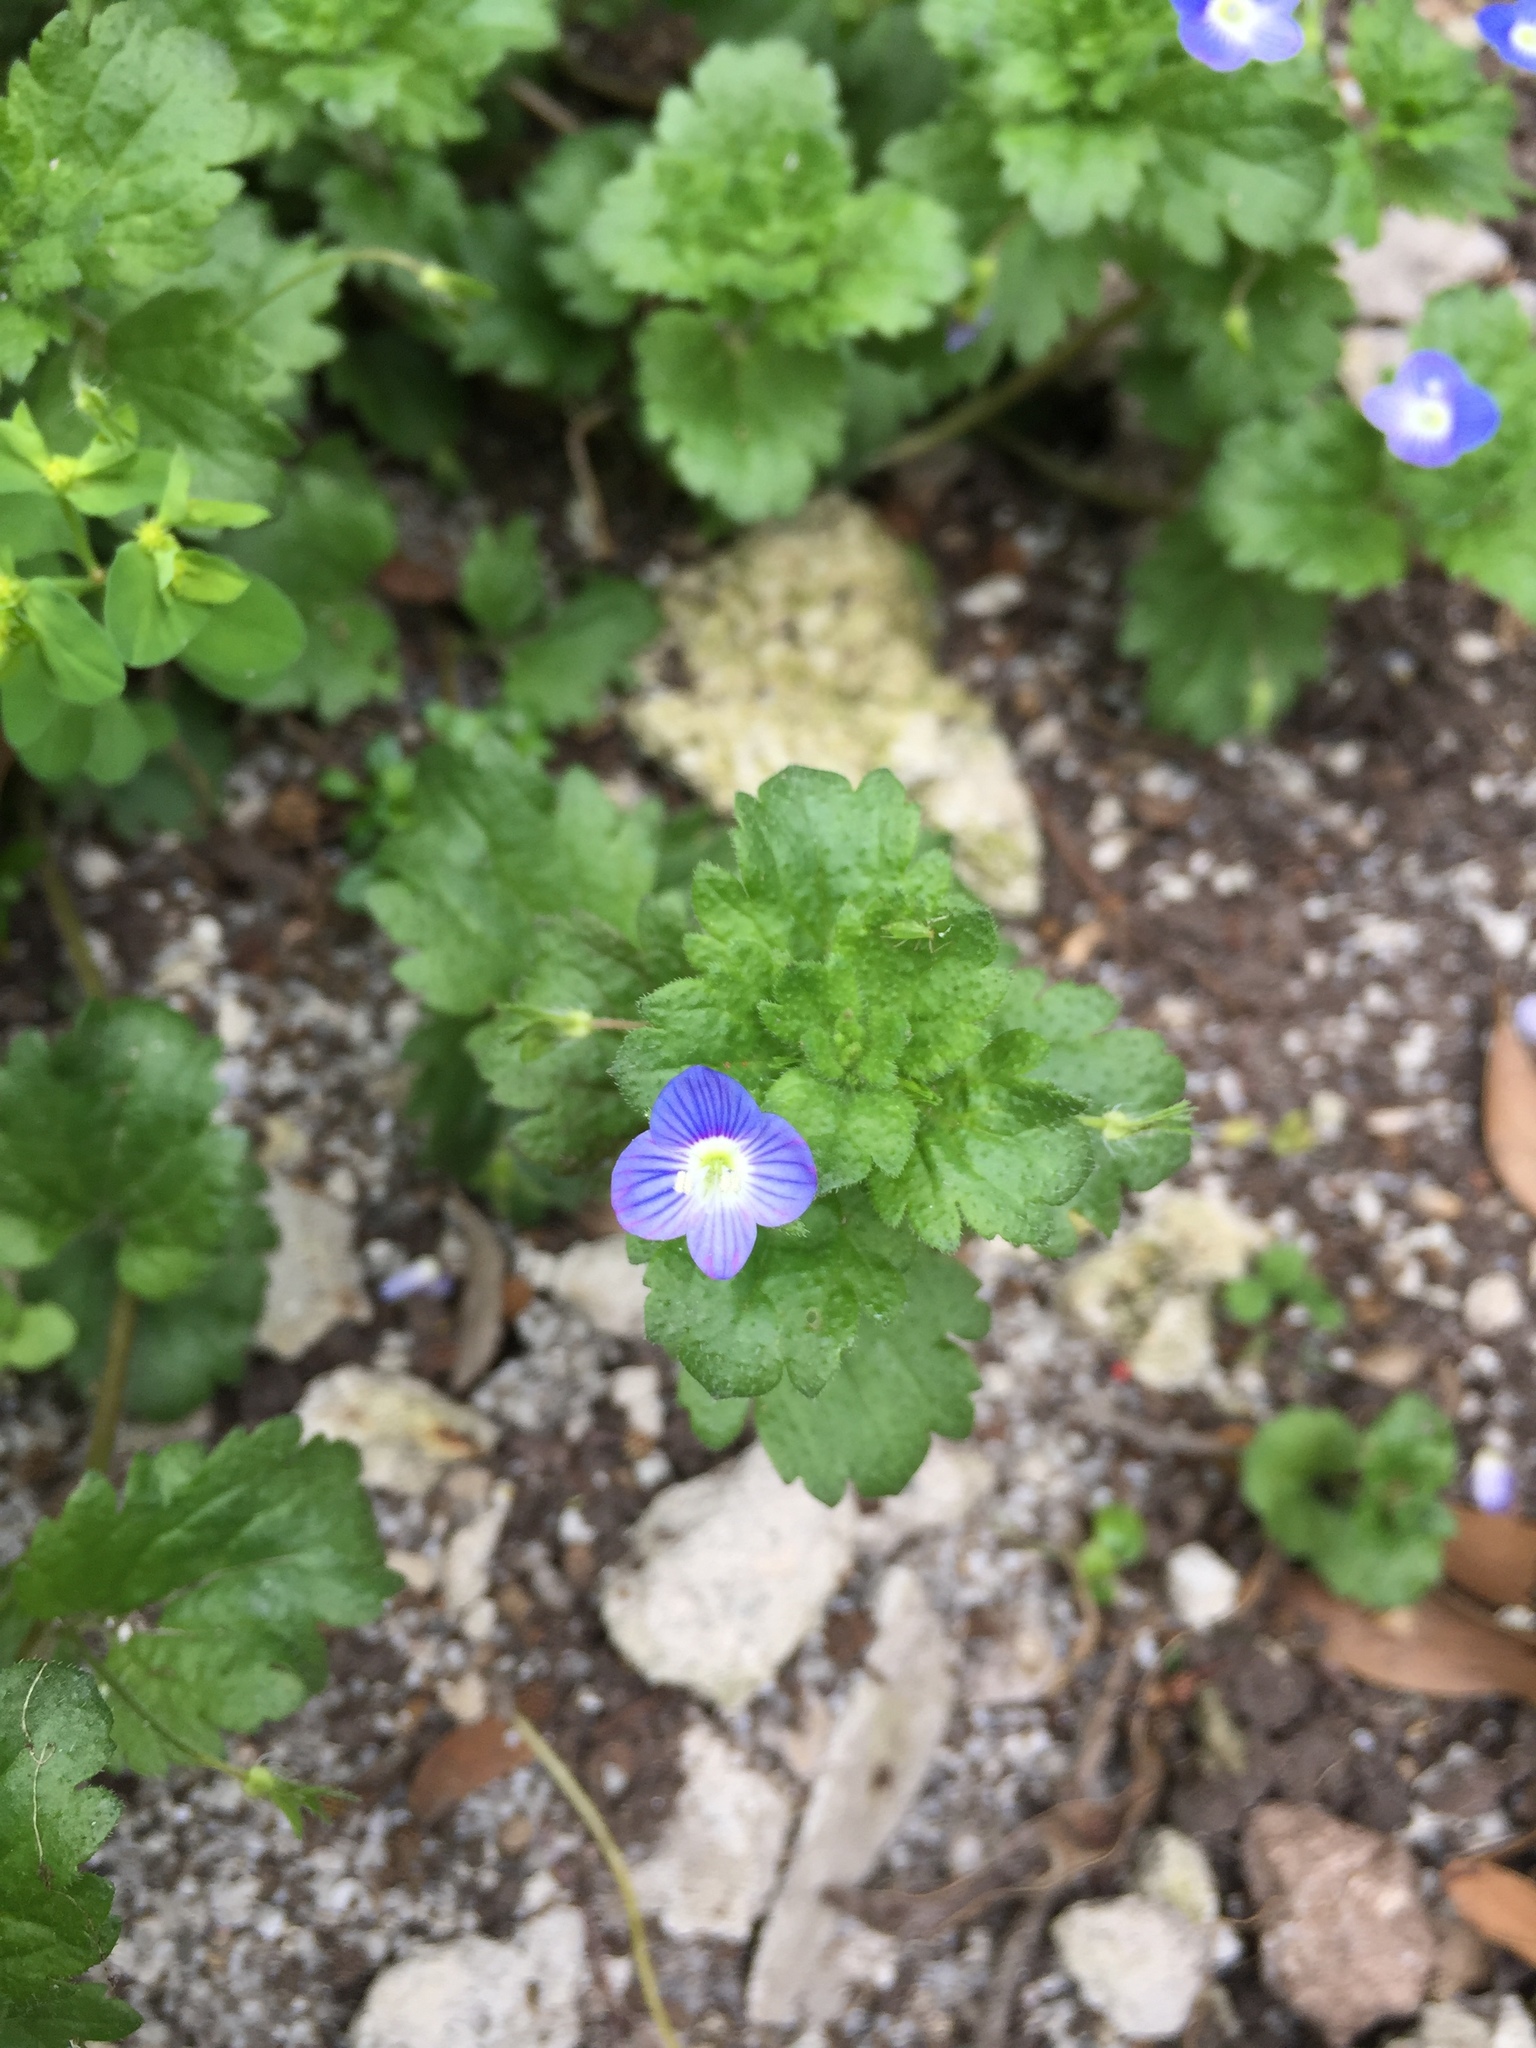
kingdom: Plantae
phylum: Tracheophyta
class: Magnoliopsida
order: Lamiales
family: Plantaginaceae
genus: Veronica
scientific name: Veronica persica
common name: Common field-speedwell
